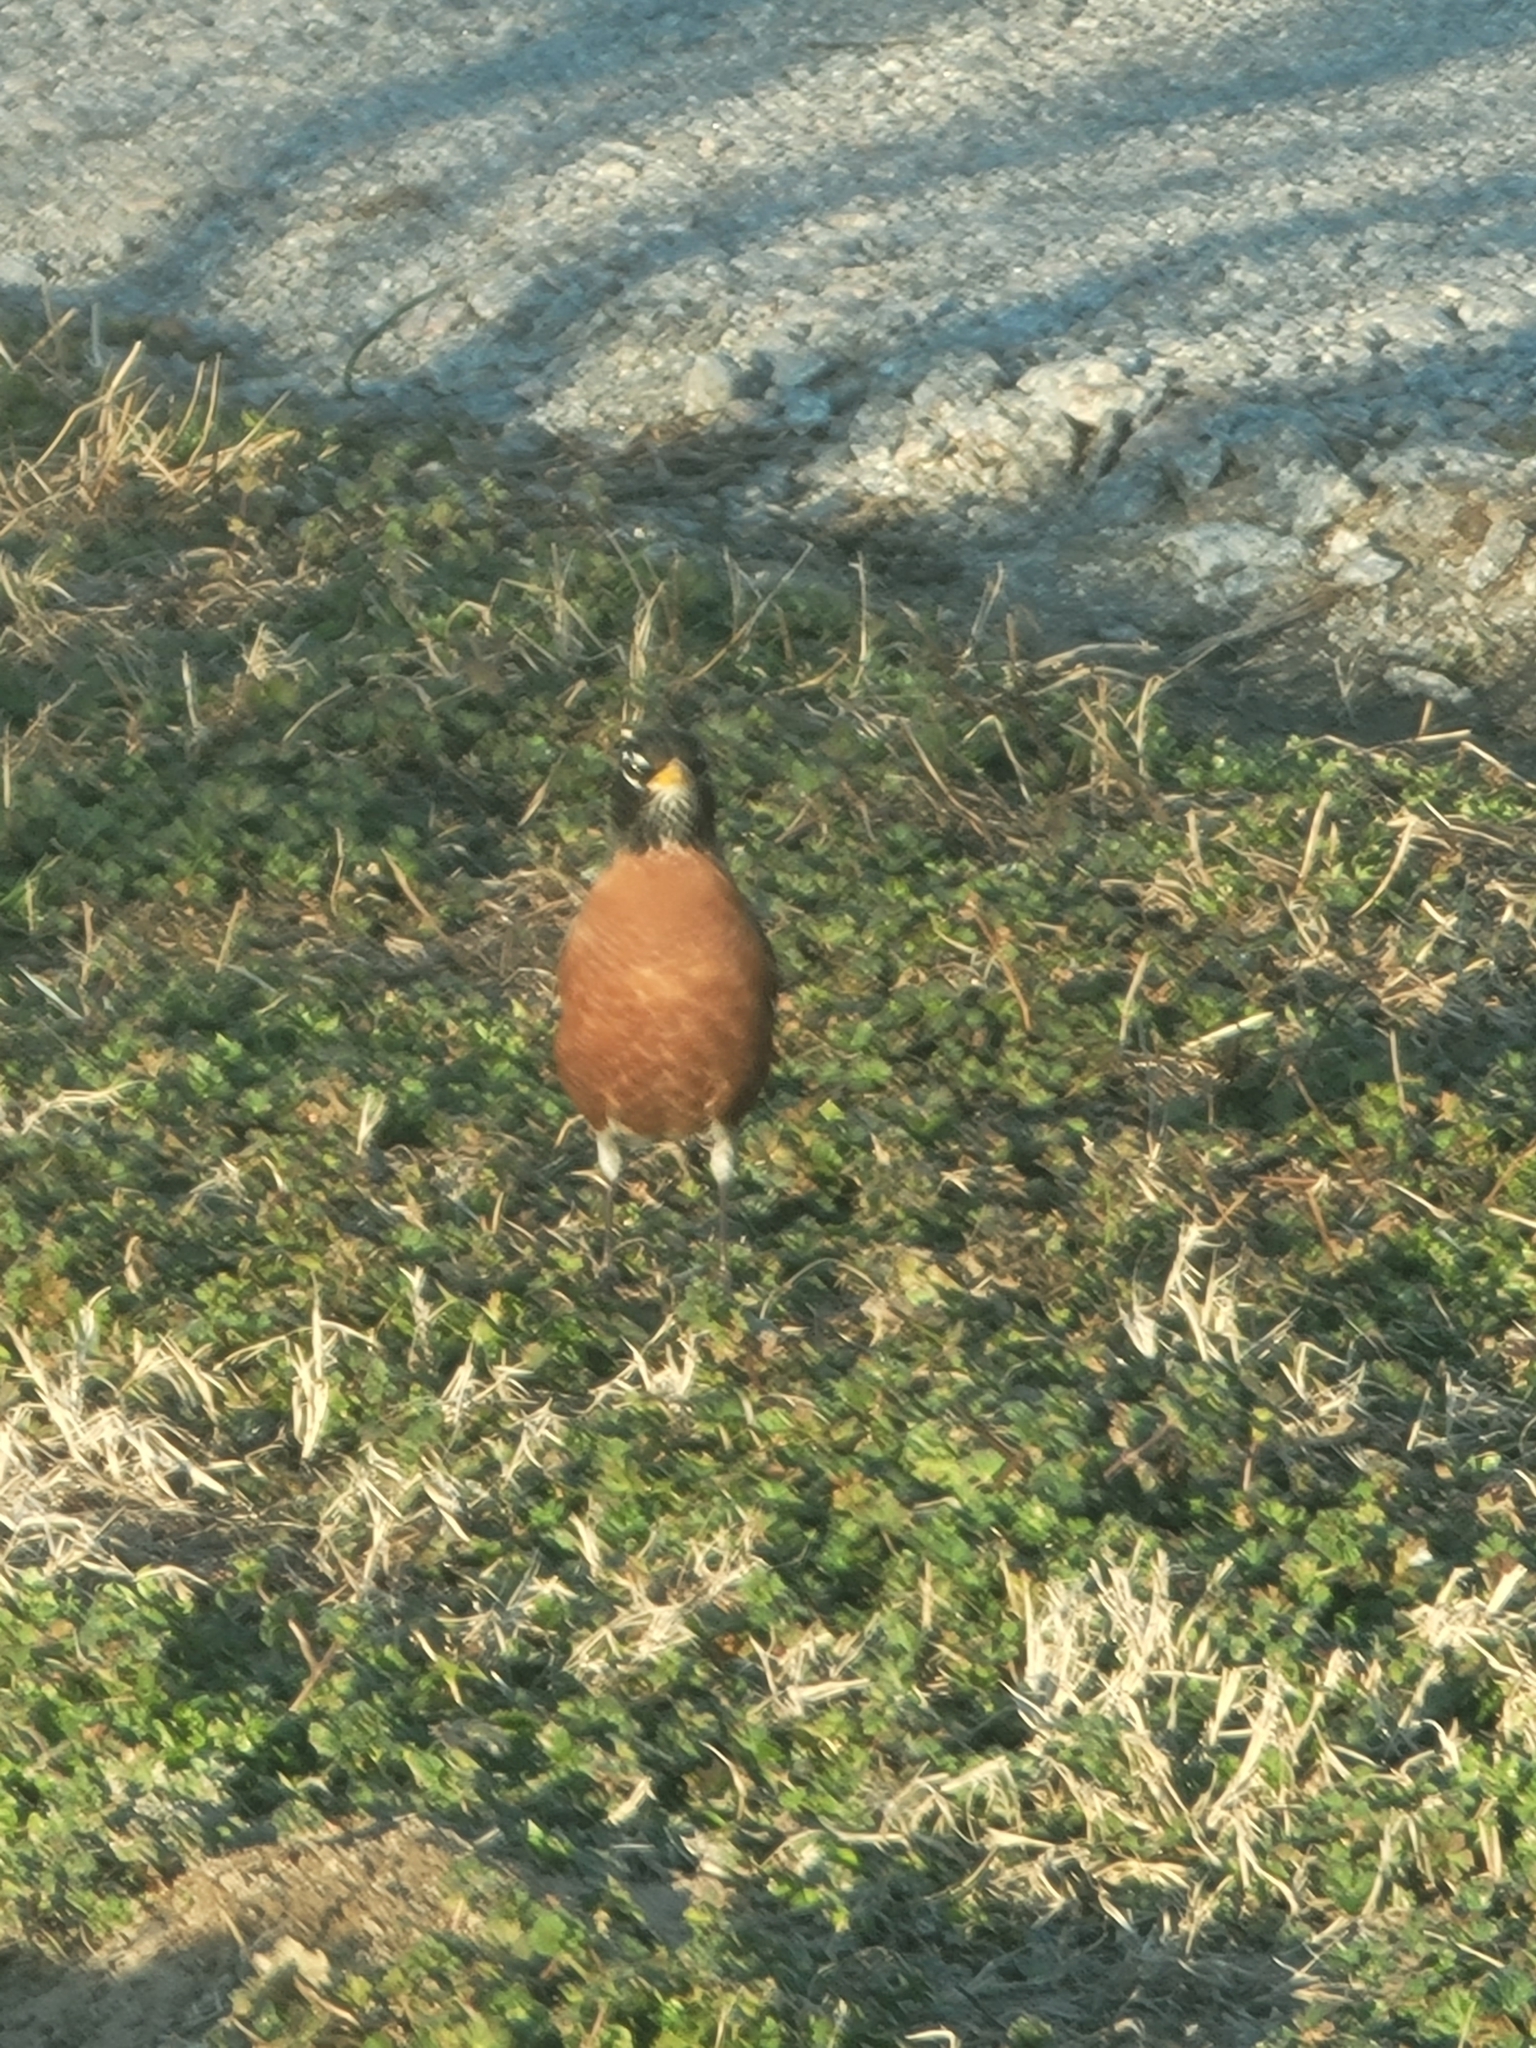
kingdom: Animalia
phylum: Chordata
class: Aves
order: Passeriformes
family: Turdidae
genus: Turdus
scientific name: Turdus migratorius
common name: American robin
